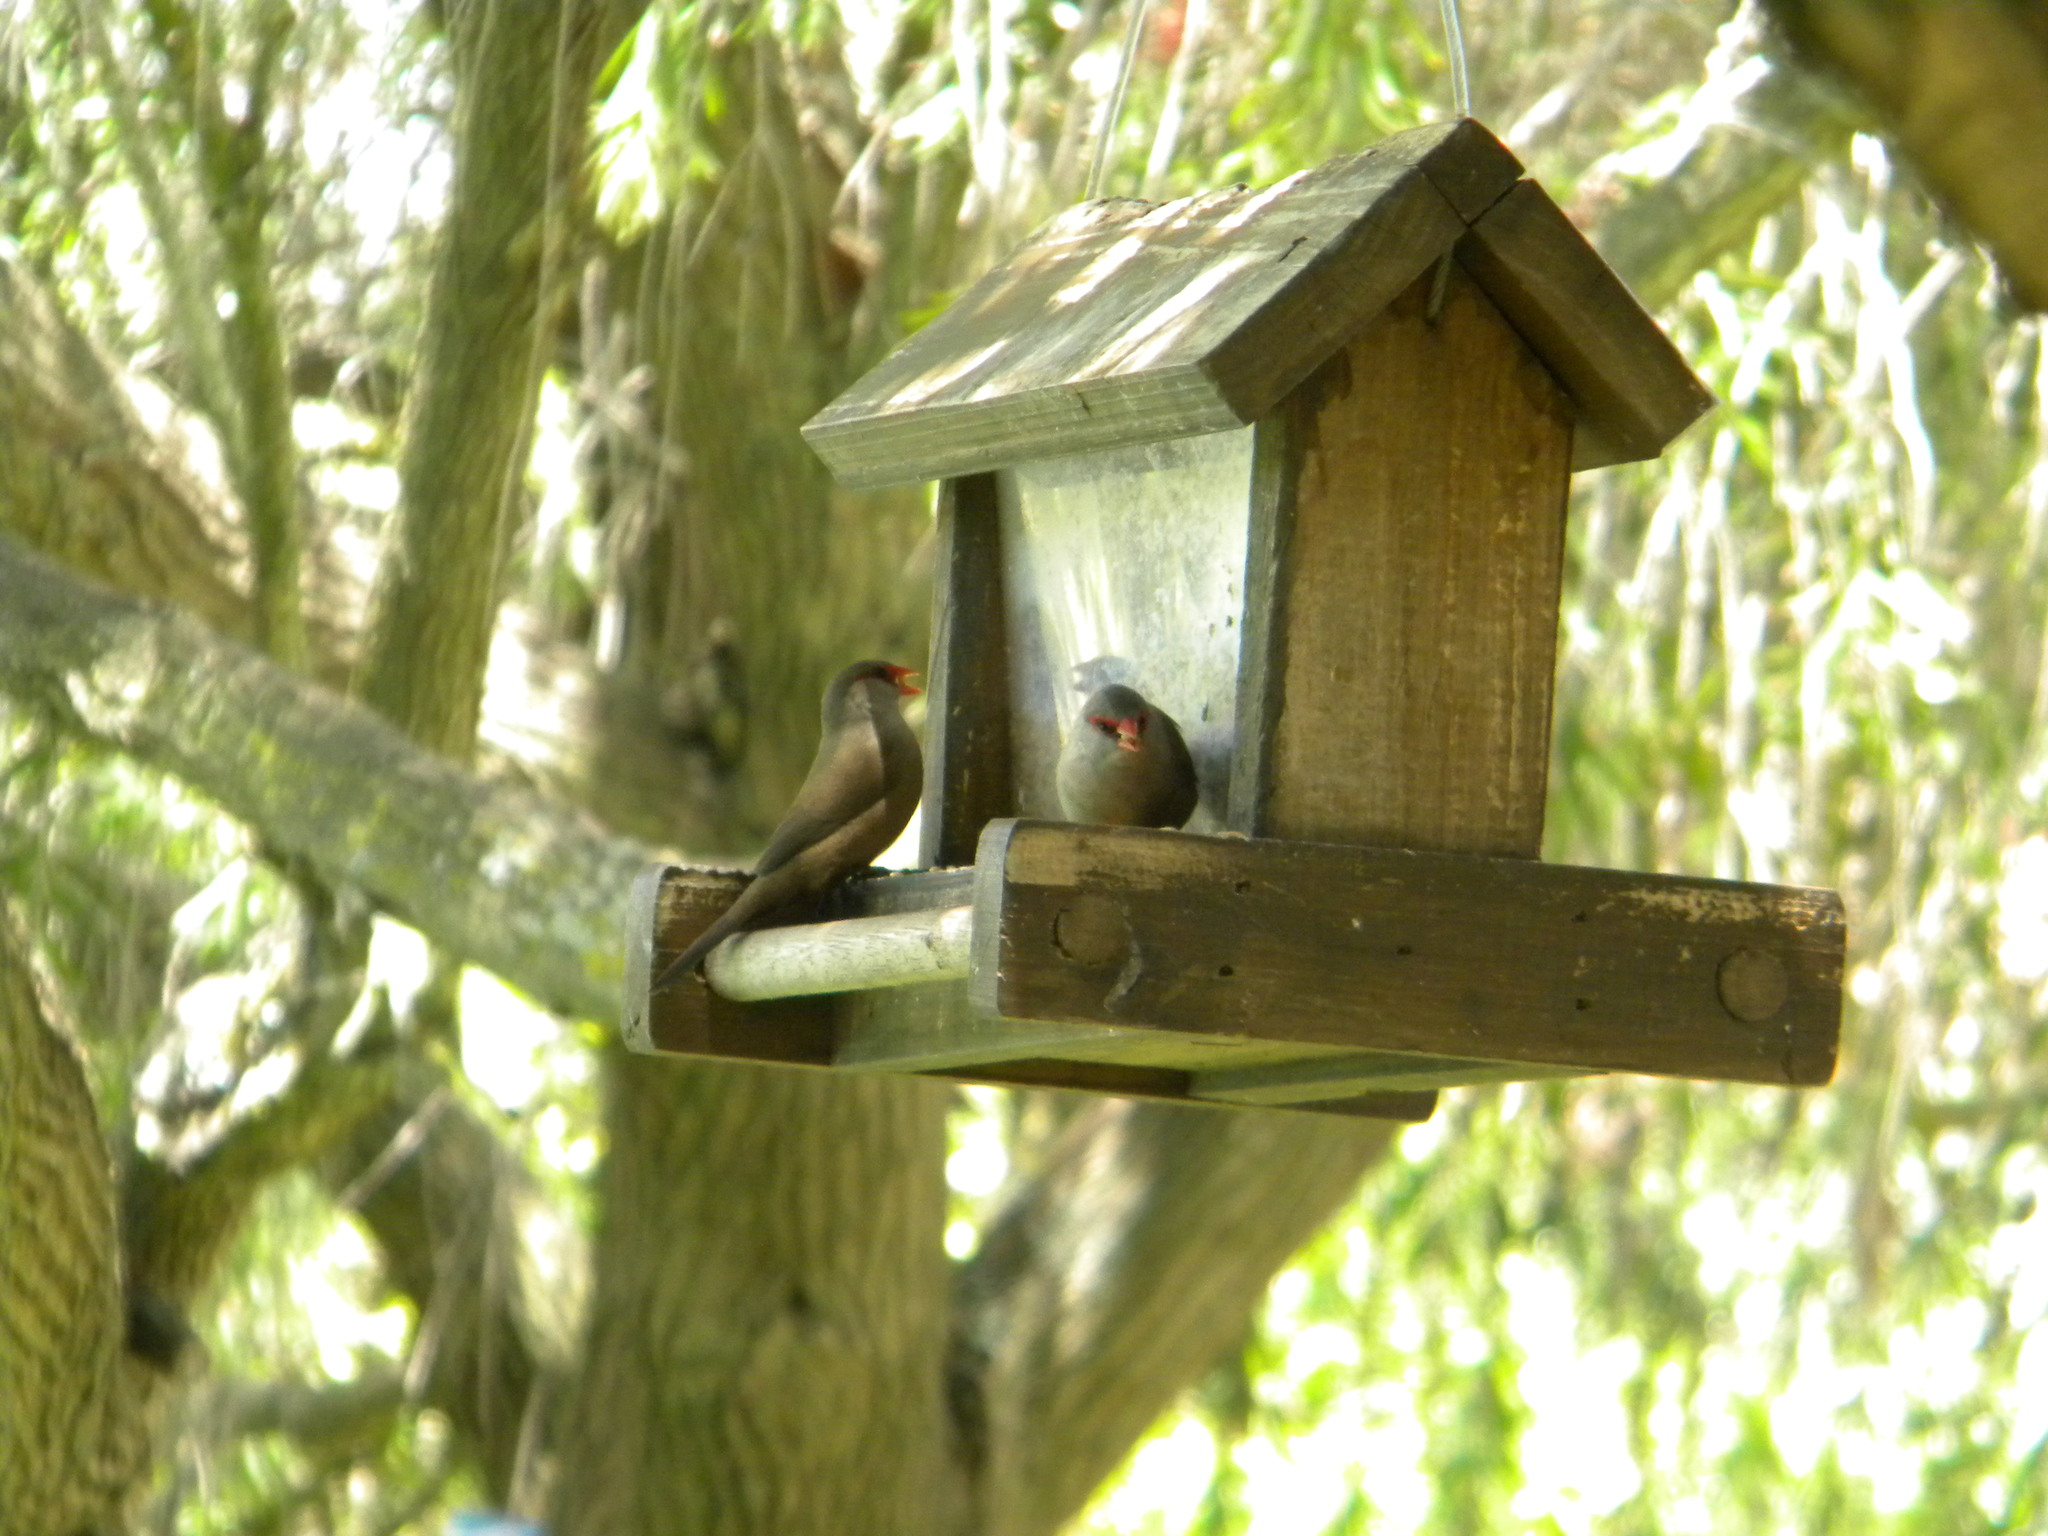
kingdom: Animalia
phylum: Chordata
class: Aves
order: Passeriformes
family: Estrildidae
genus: Estrilda
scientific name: Estrilda astrild
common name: Common waxbill
